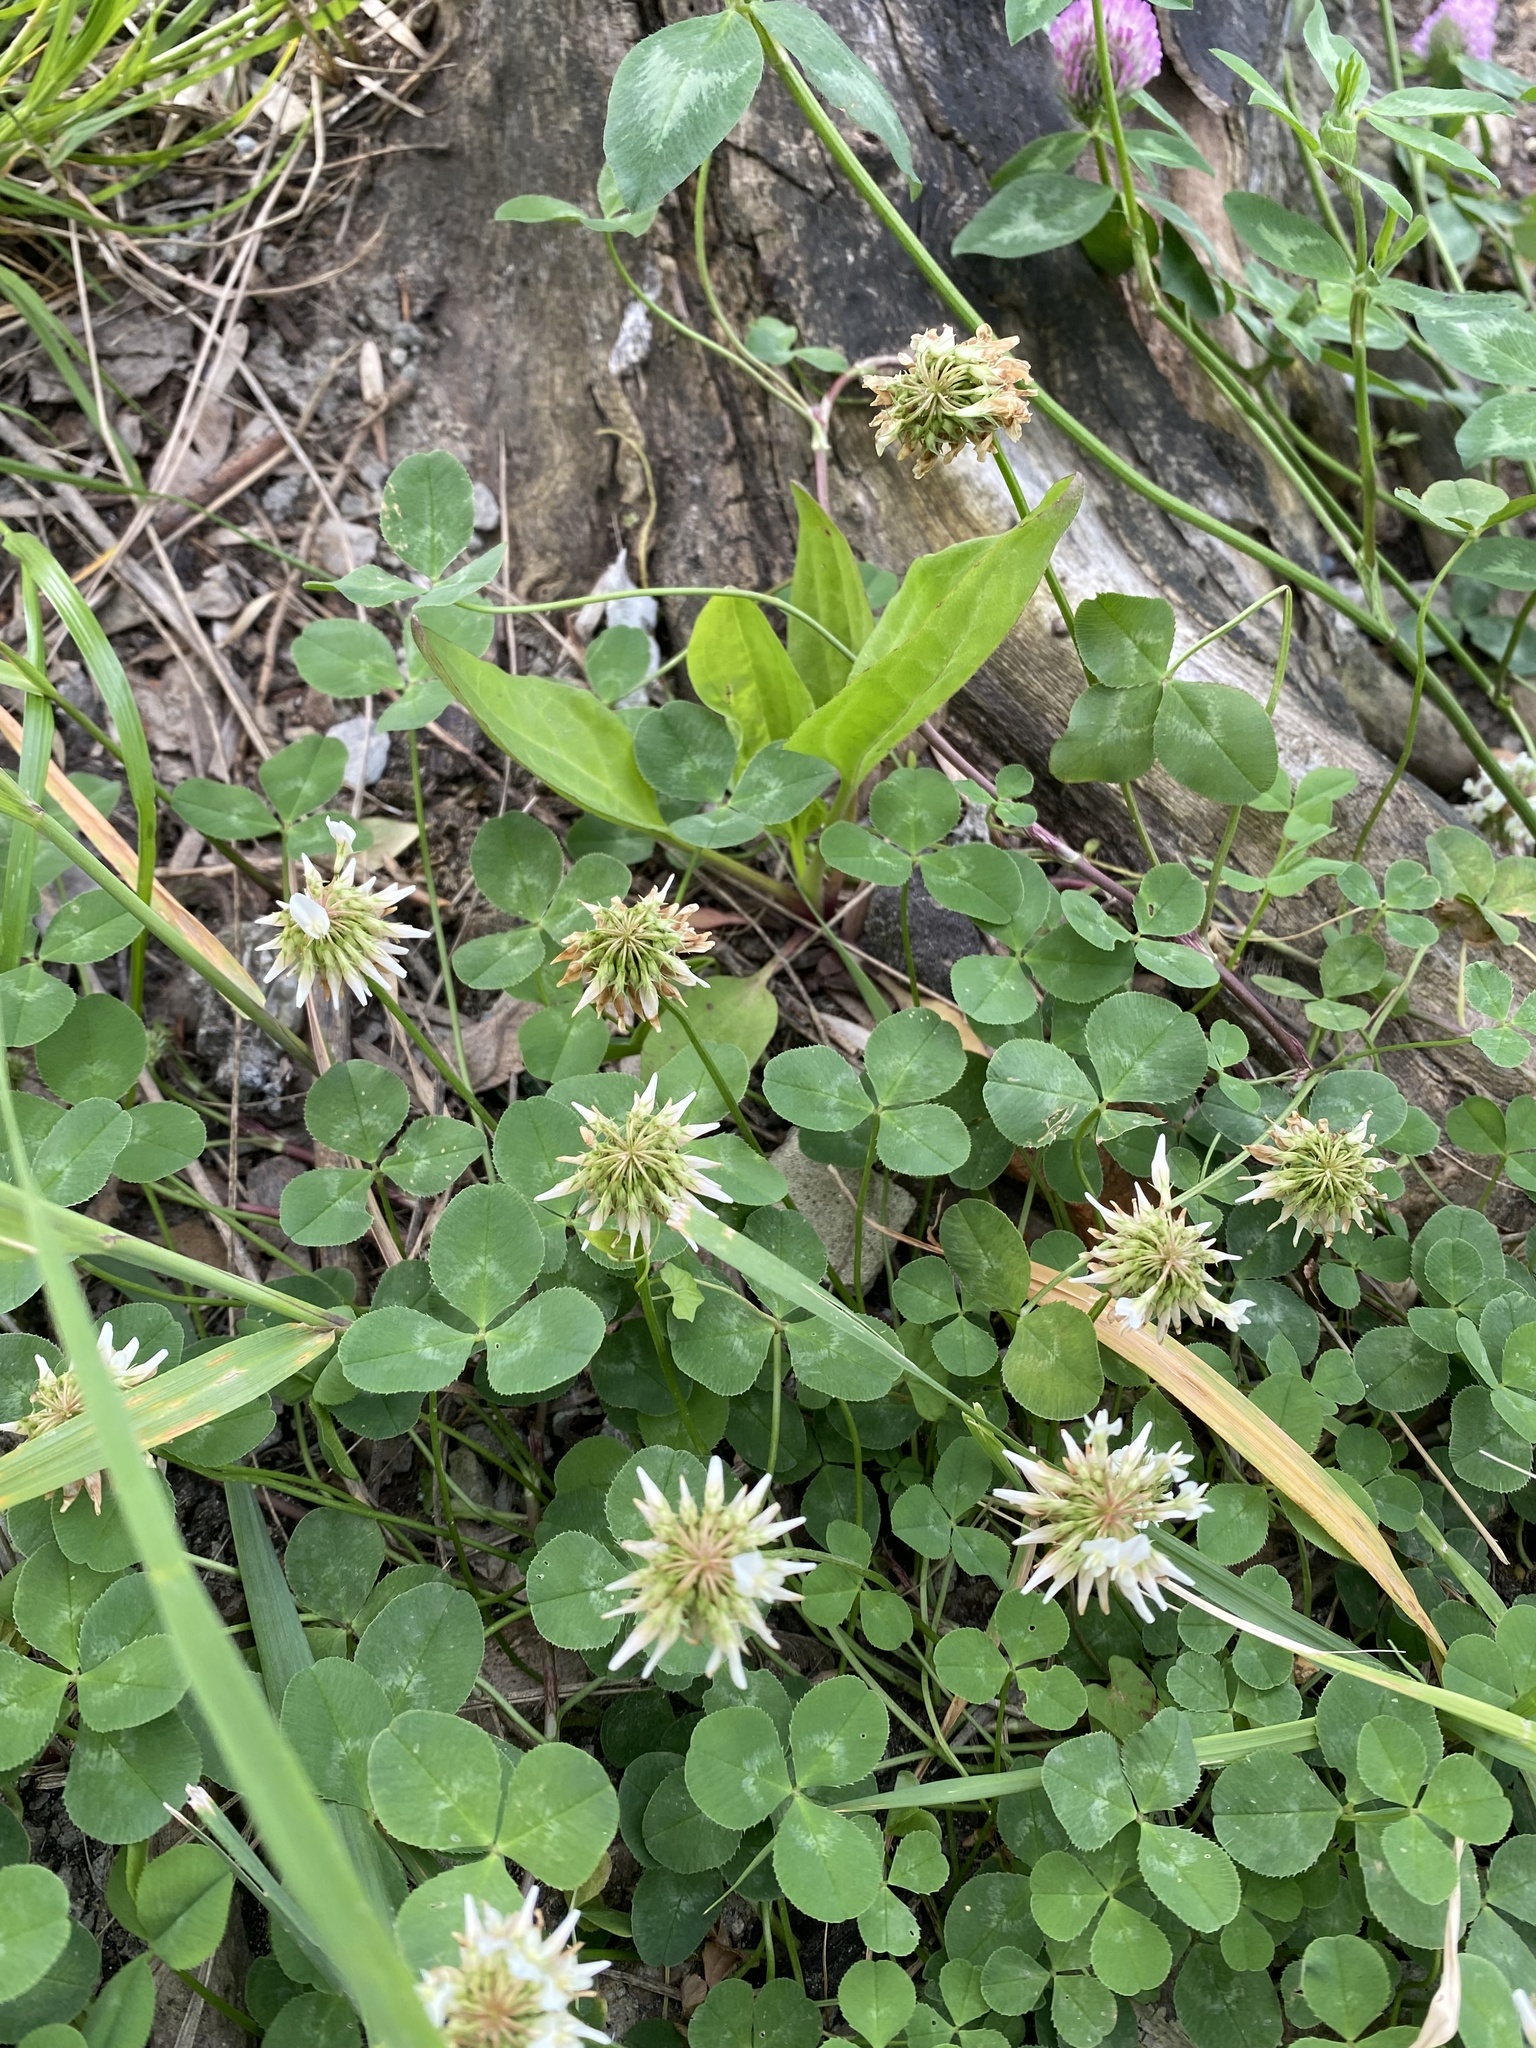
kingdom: Plantae
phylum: Tracheophyta
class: Magnoliopsida
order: Fabales
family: Fabaceae
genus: Trifolium
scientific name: Trifolium repens
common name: White clover
